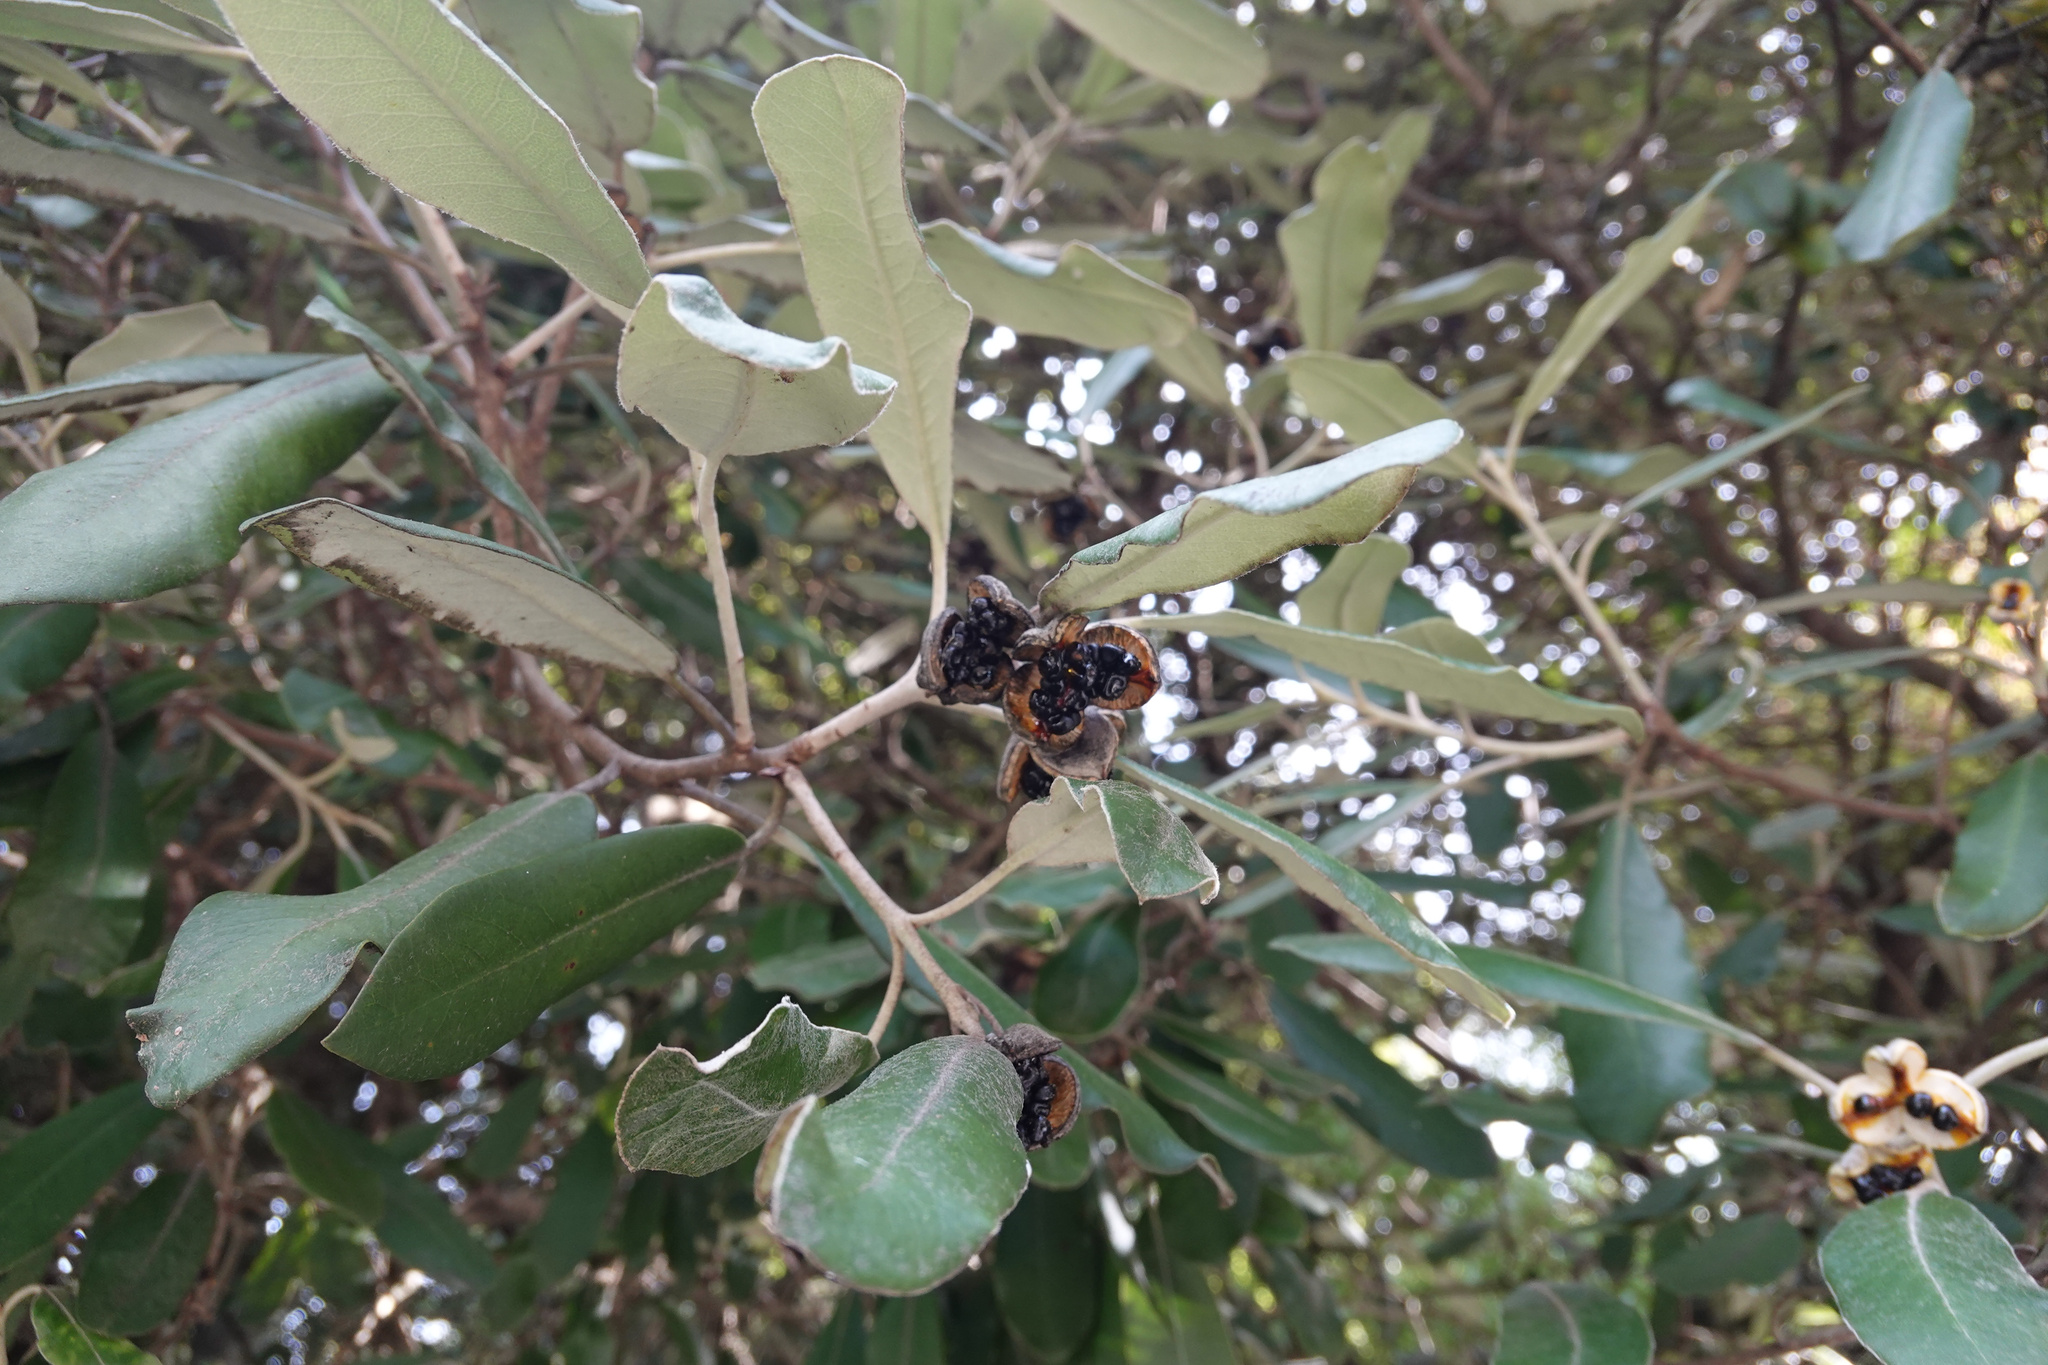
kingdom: Plantae
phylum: Tracheophyta
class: Magnoliopsida
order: Apiales
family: Pittosporaceae
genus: Pittosporum
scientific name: Pittosporum ralphii
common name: Ralph's desertwillow
